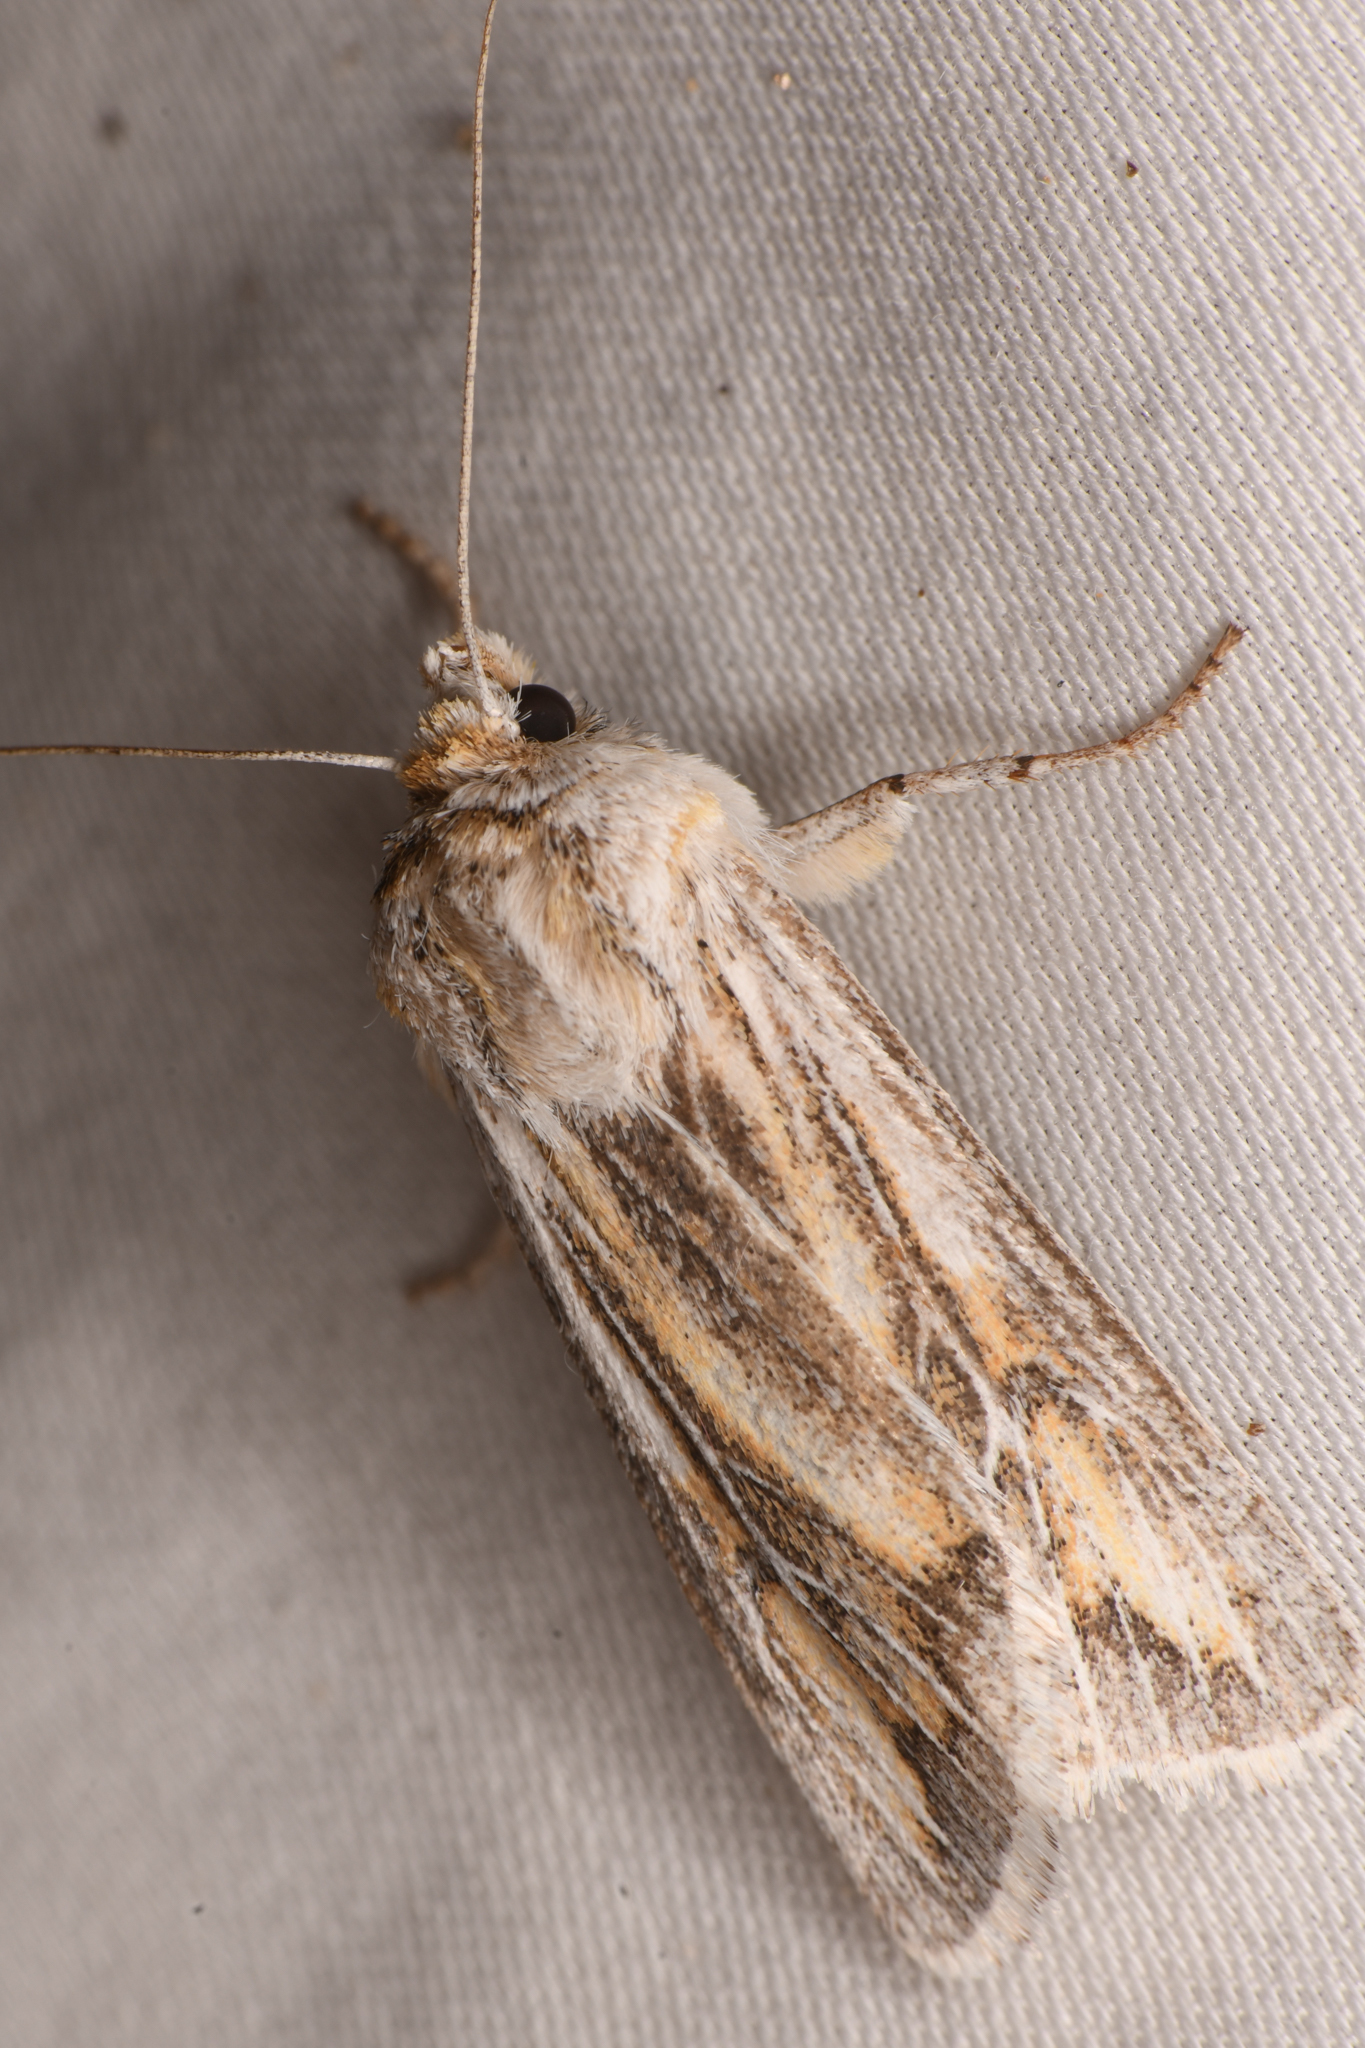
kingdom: Animalia
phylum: Arthropoda
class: Insecta
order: Lepidoptera
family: Noctuidae
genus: Protogygia
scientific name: Protogygia polingi
